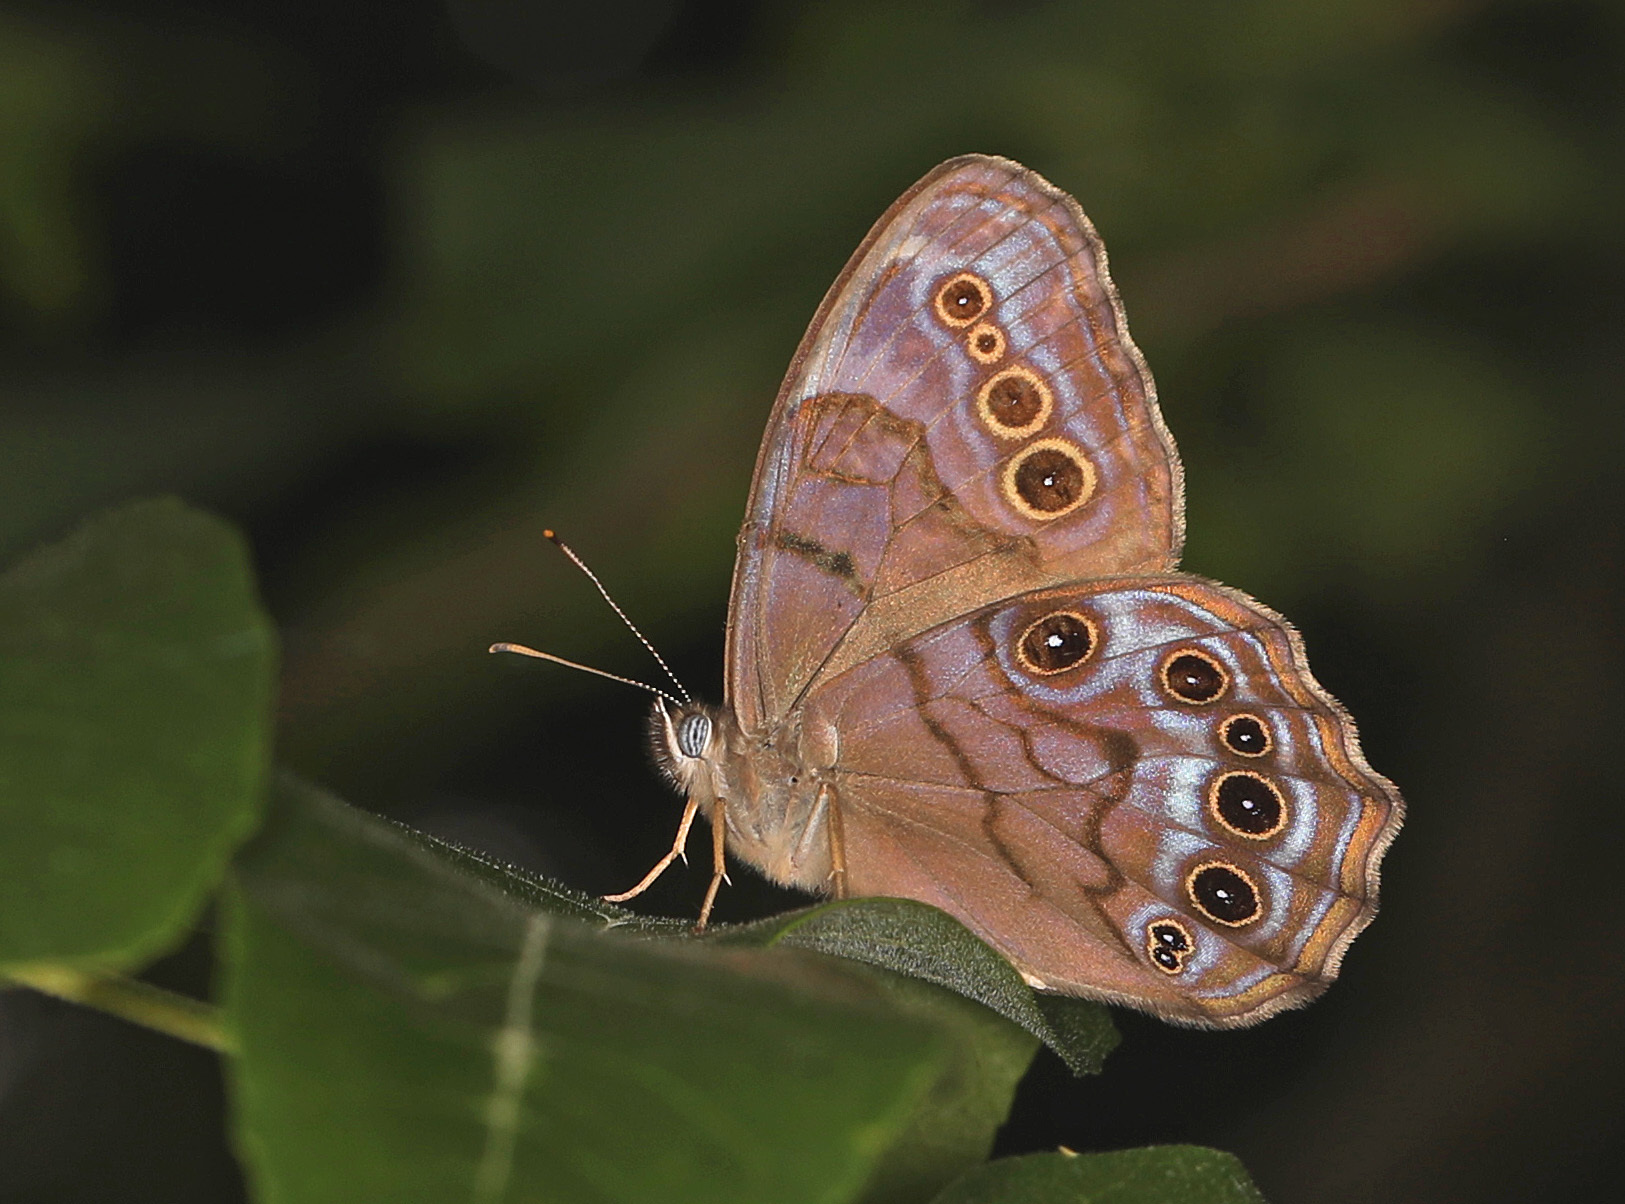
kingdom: Animalia
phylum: Arthropoda
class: Insecta
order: Lepidoptera
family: Nymphalidae
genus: Lethe
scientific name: Lethe anthedon
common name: Northern pearly-eye
